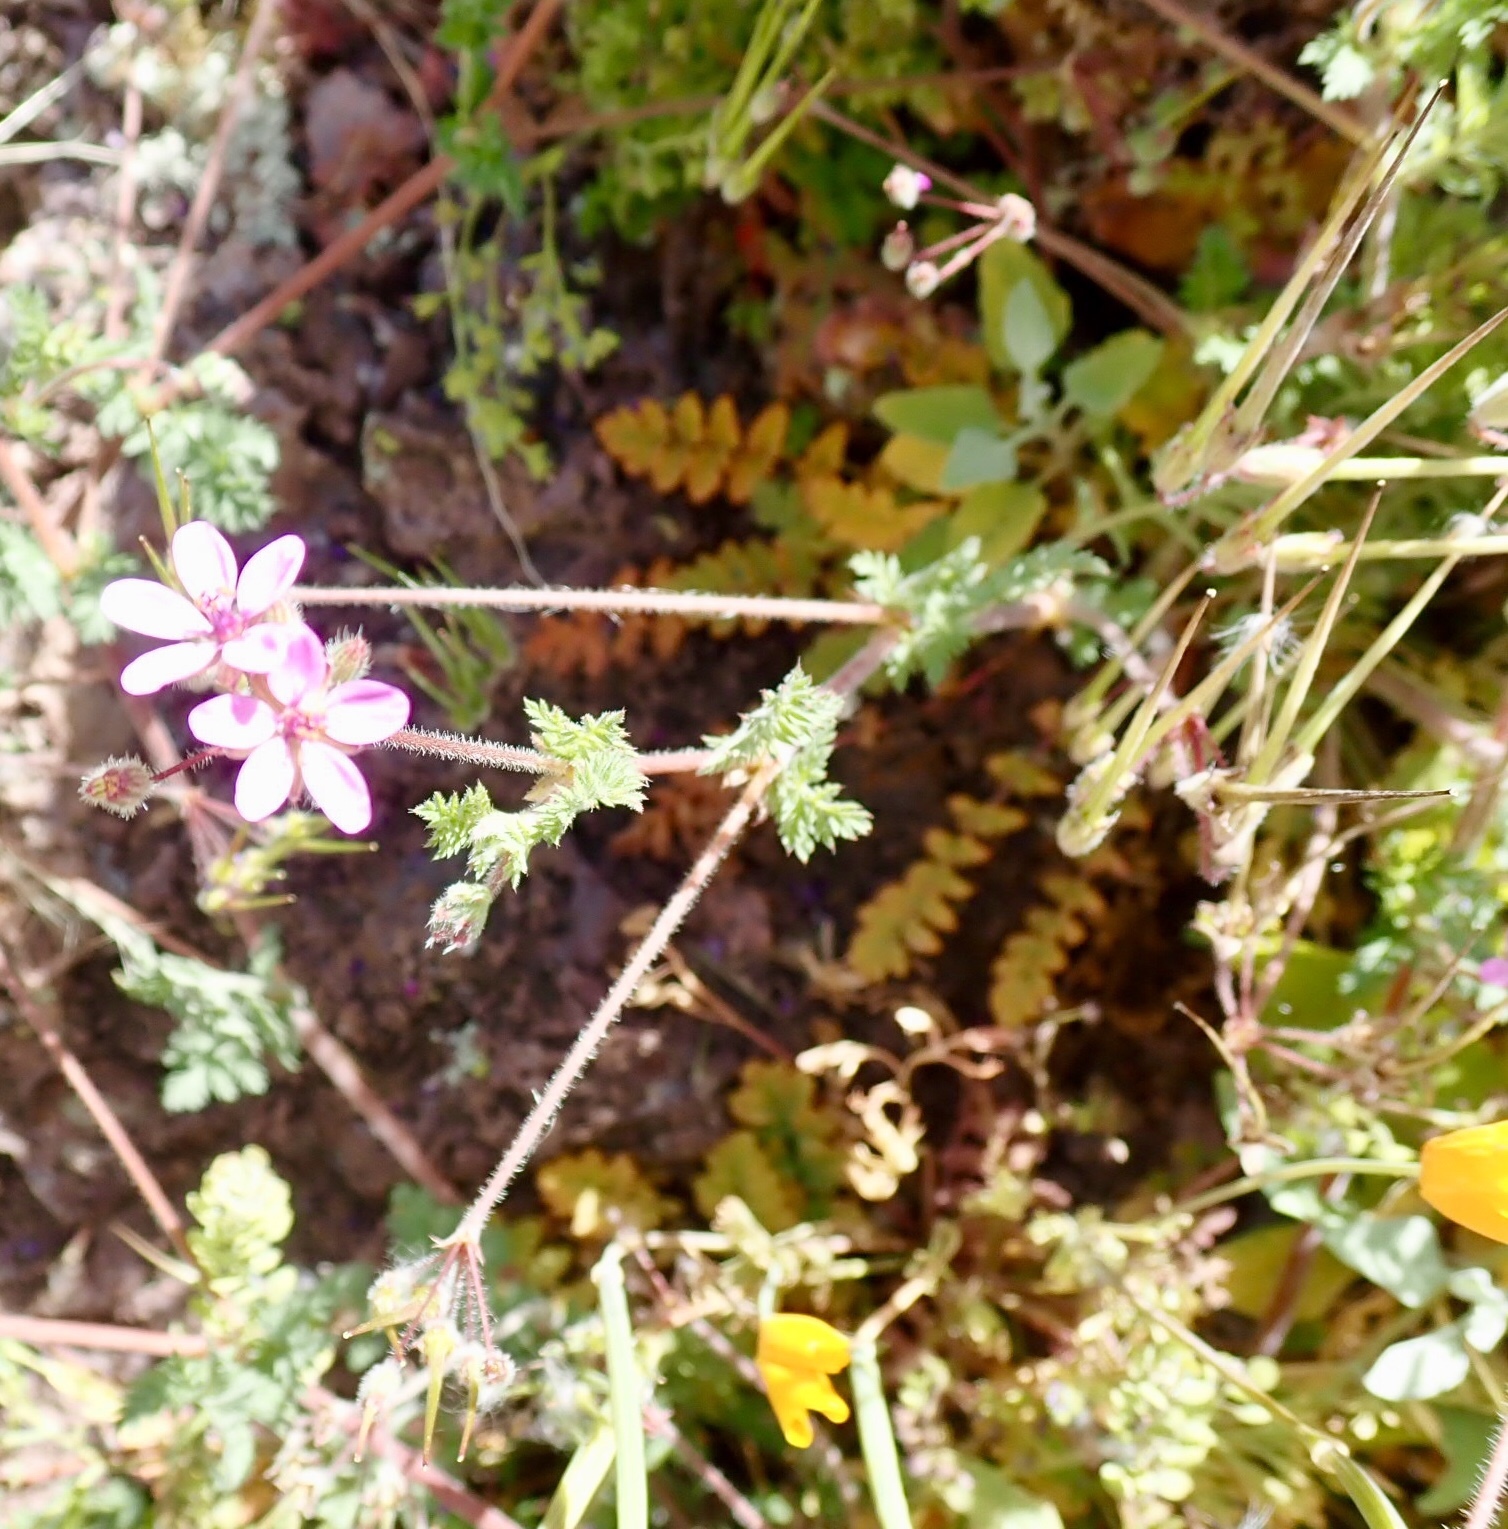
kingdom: Plantae
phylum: Tracheophyta
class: Magnoliopsida
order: Geraniales
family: Geraniaceae
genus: Erodium
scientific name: Erodium cicutarium
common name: Common stork's-bill
